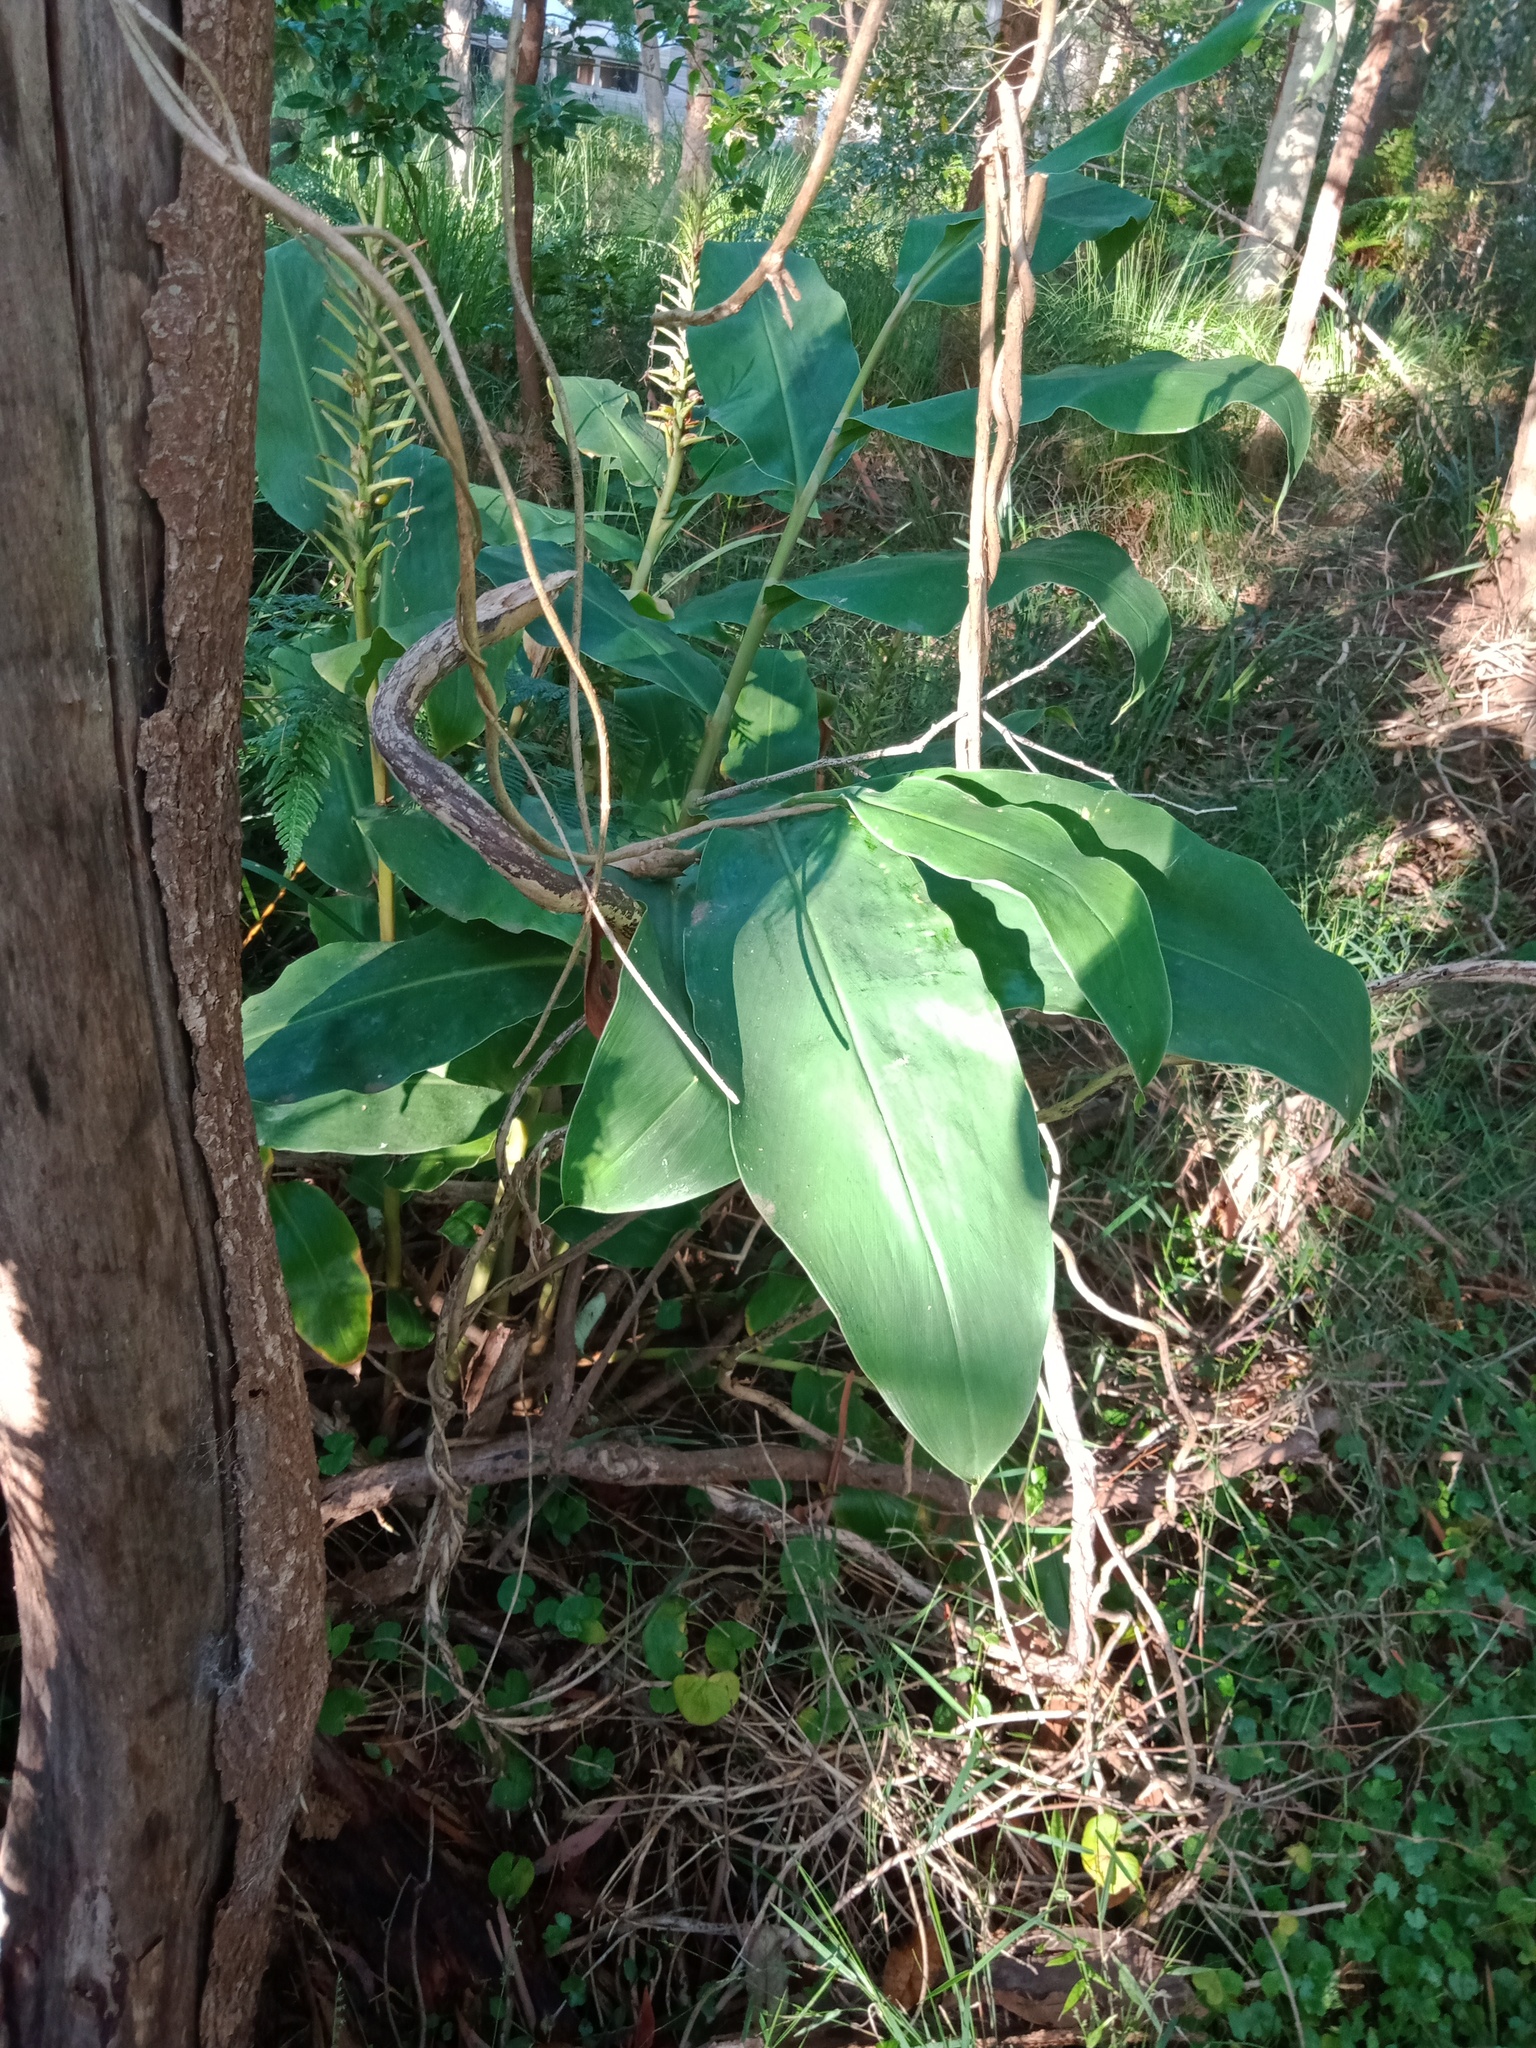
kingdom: Plantae
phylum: Tracheophyta
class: Liliopsida
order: Zingiberales
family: Zingiberaceae
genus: Hedychium
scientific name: Hedychium gardnerianum
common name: Himalayan ginger
